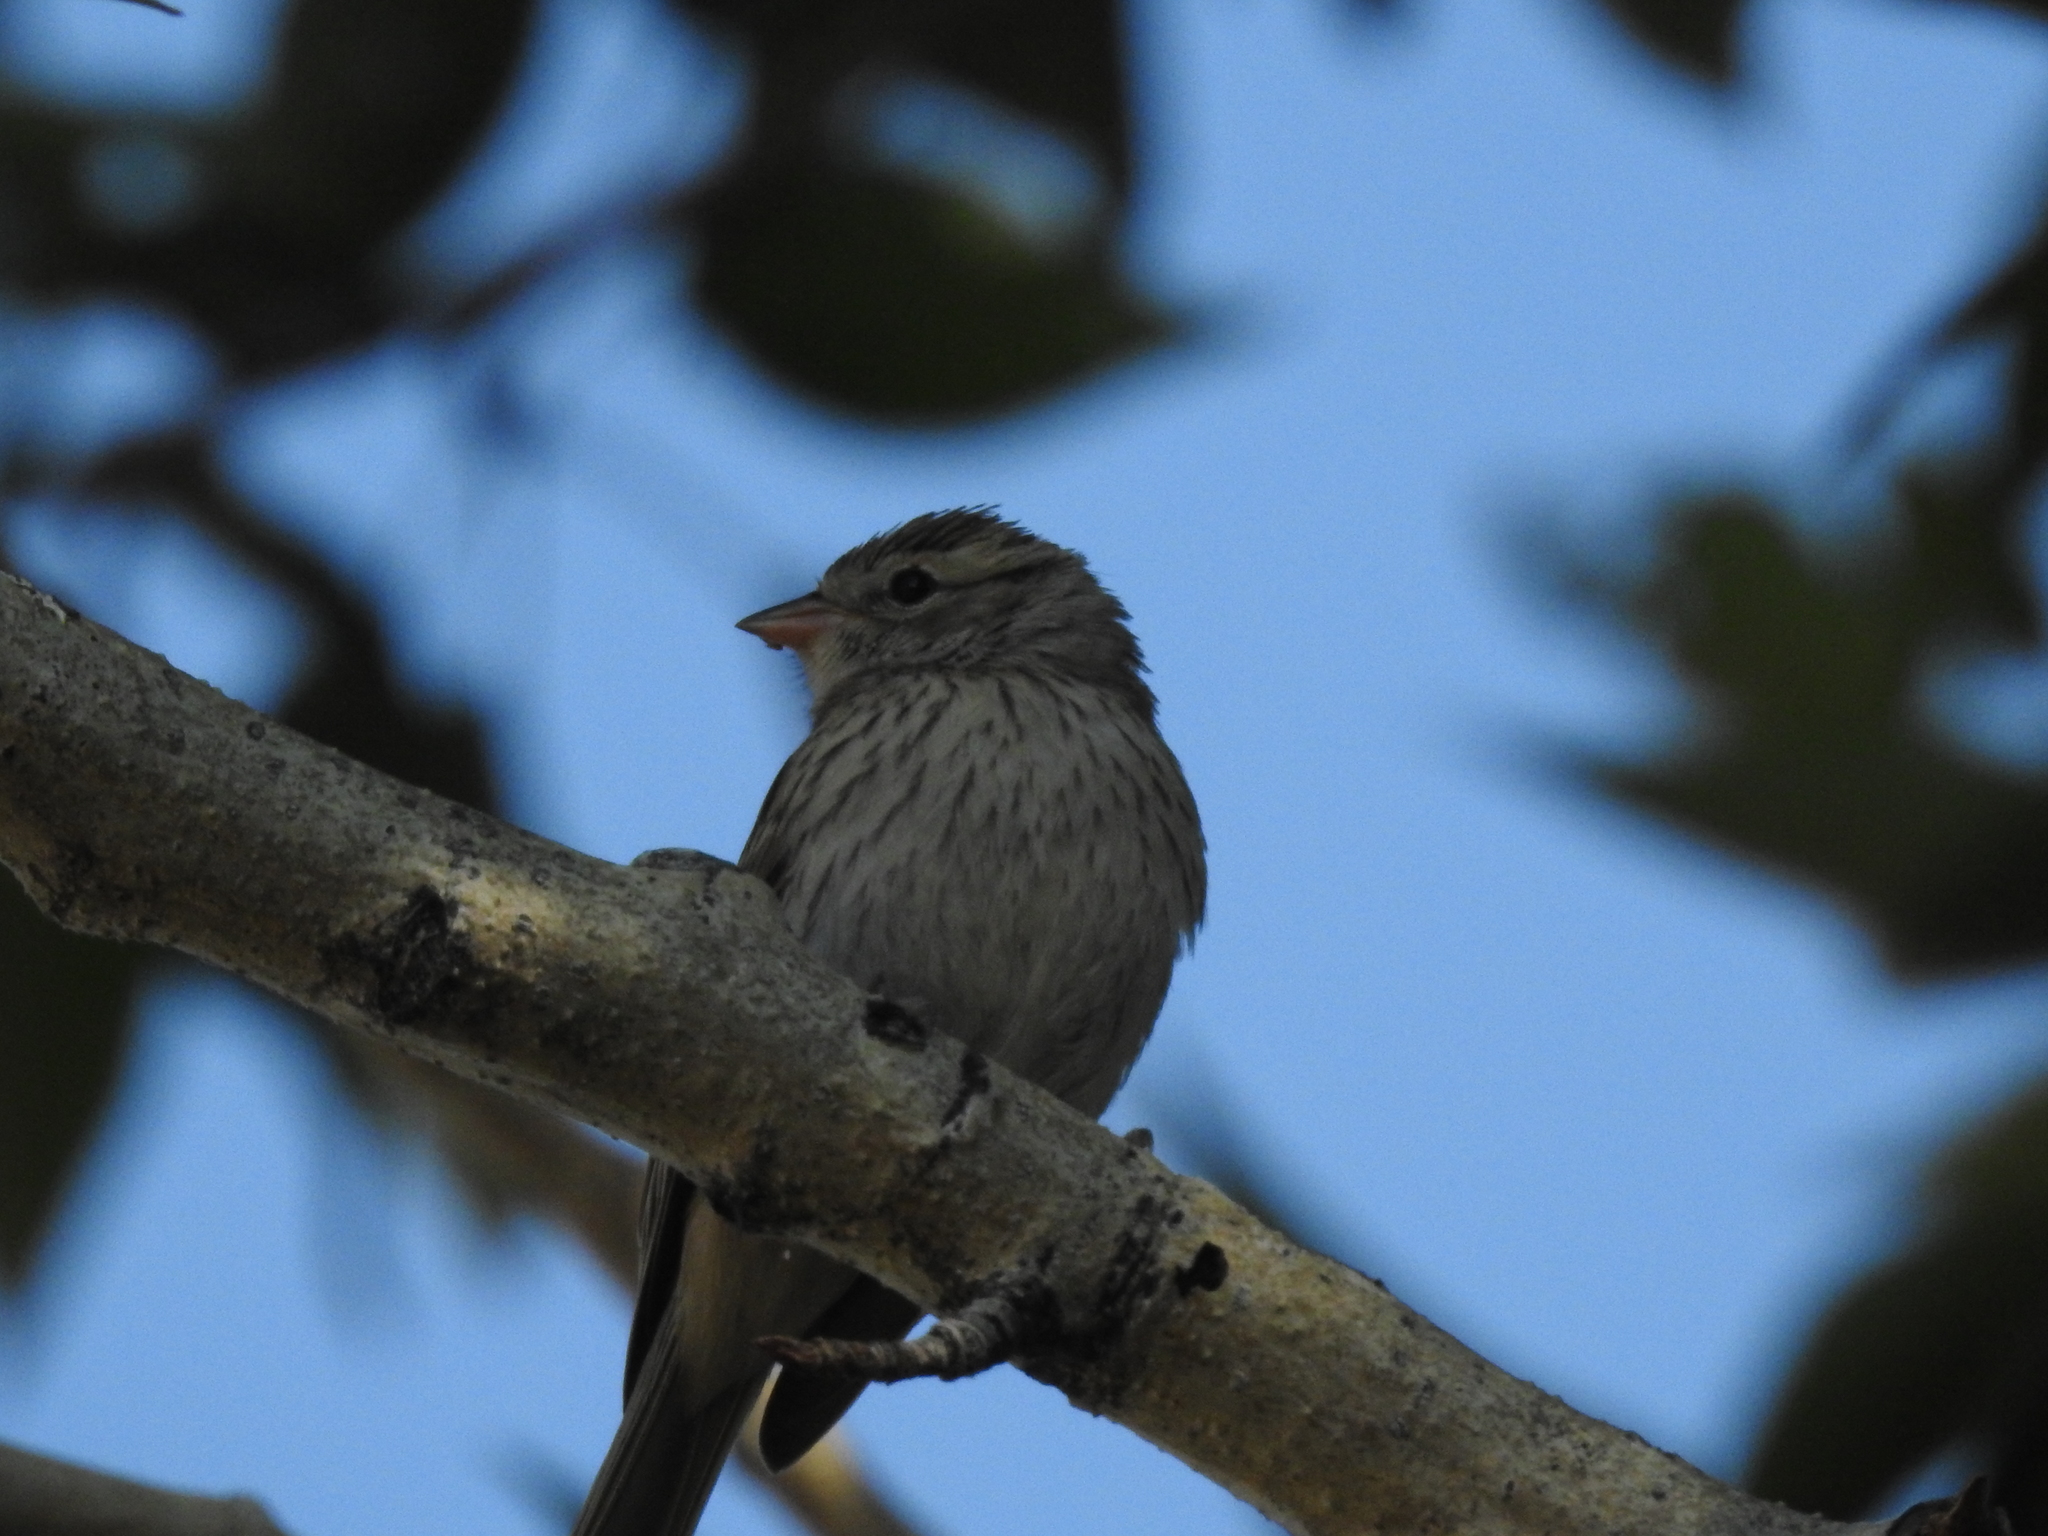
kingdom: Animalia
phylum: Chordata
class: Aves
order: Passeriformes
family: Passerellidae
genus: Spizella
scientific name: Spizella passerina
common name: Chipping sparrow
